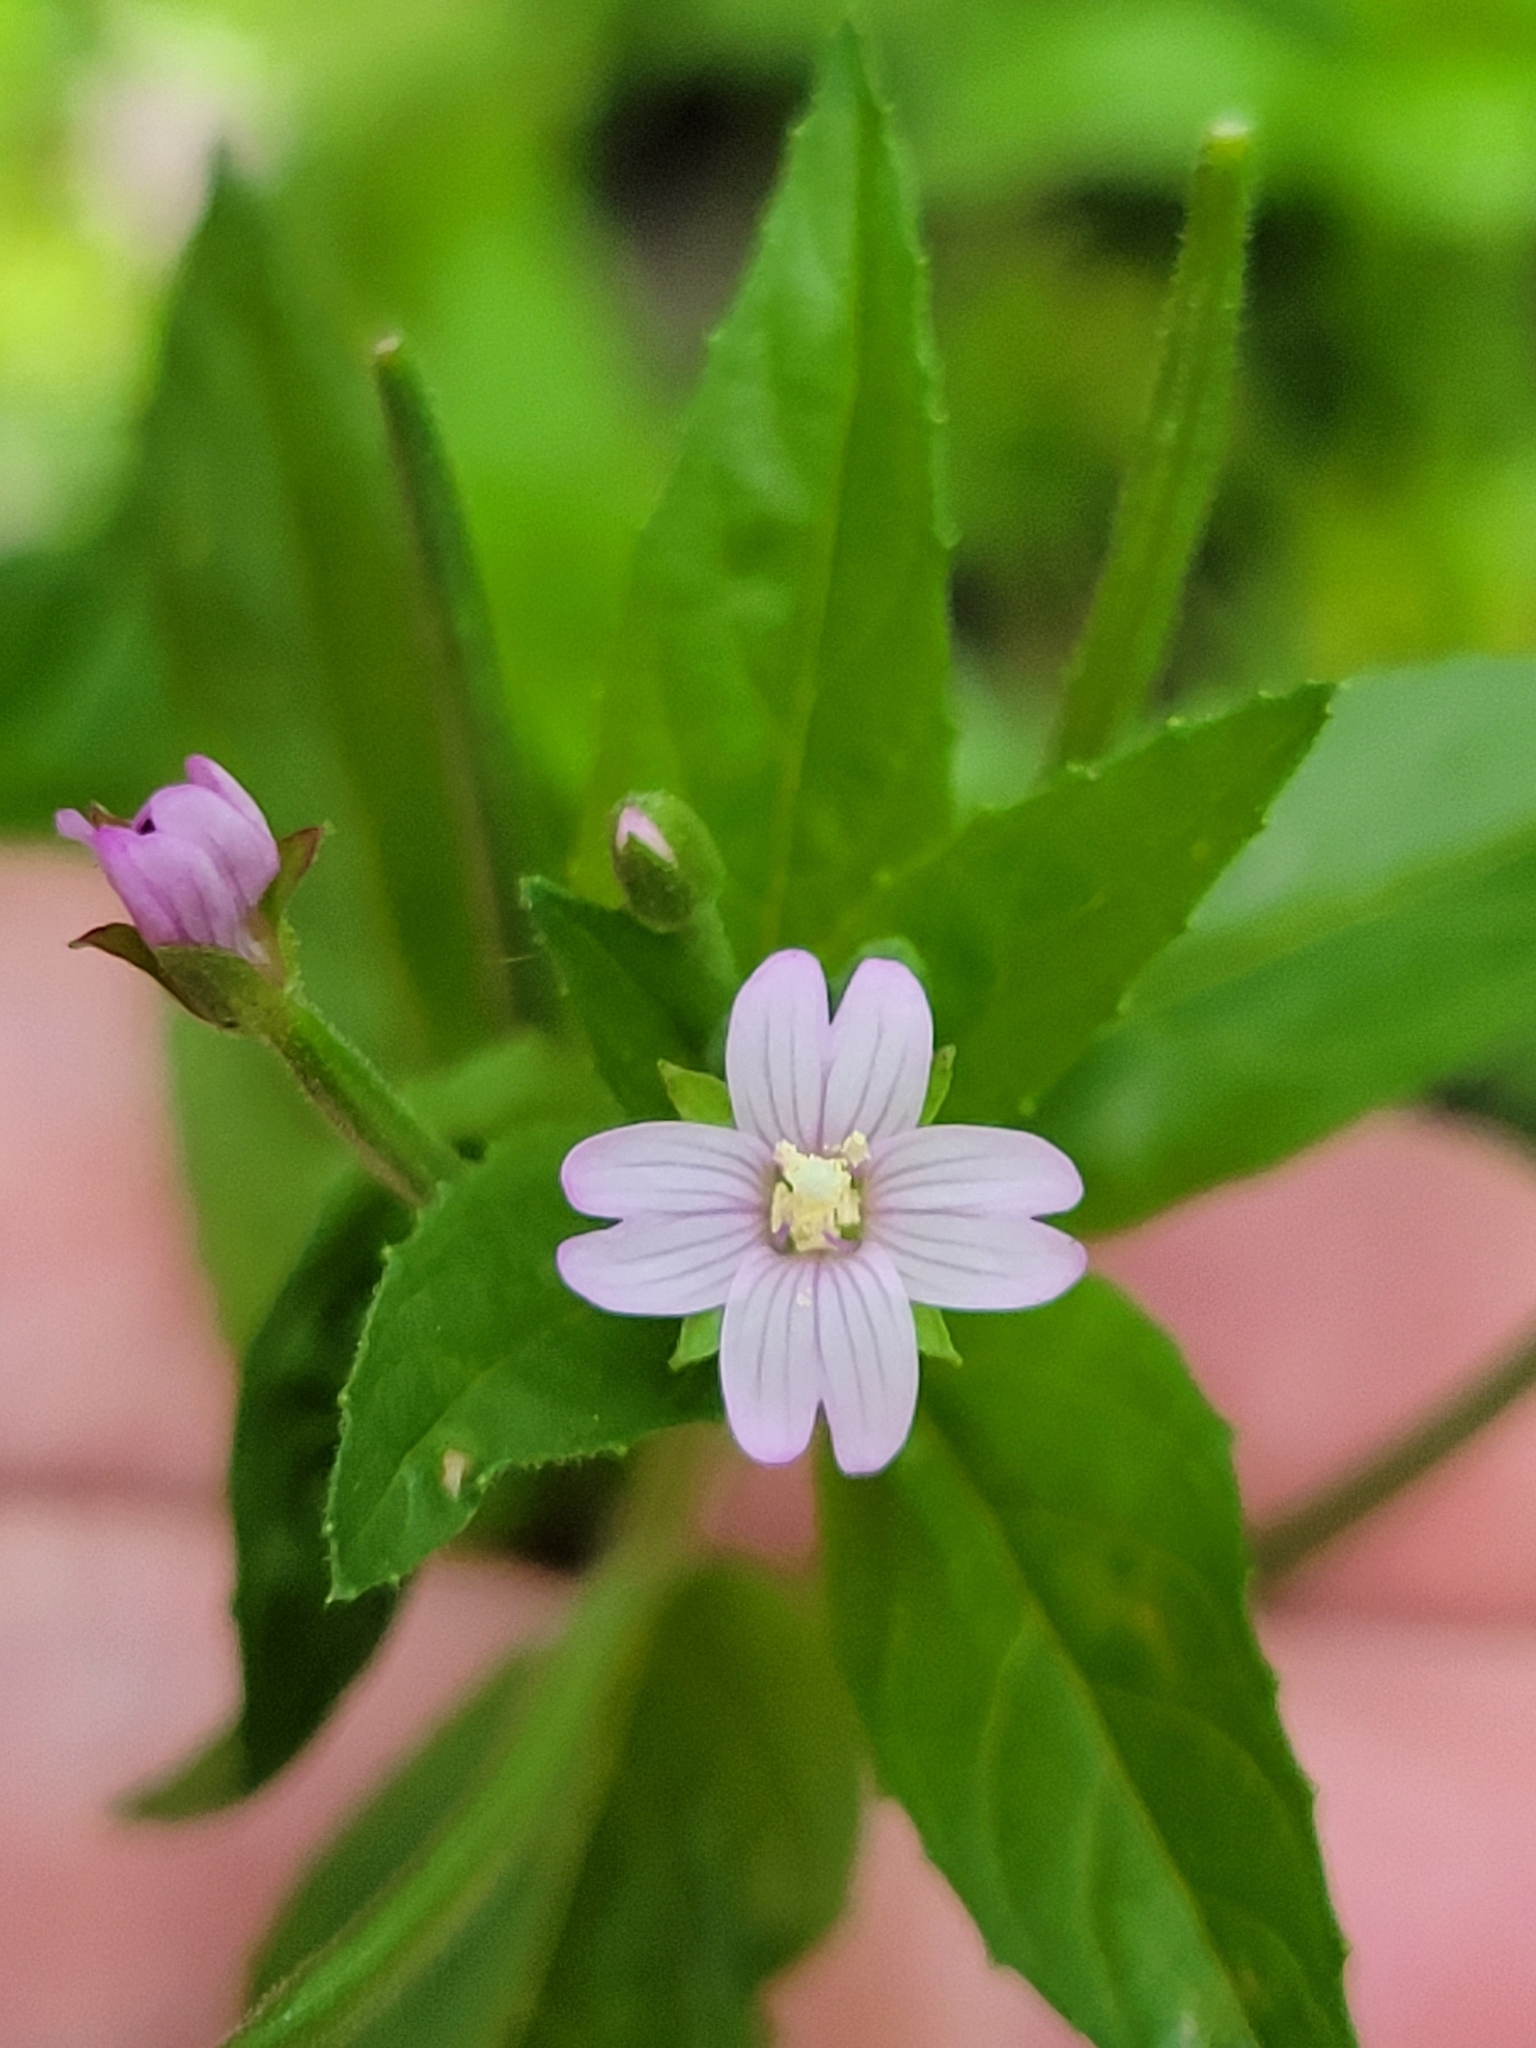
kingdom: Plantae
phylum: Tracheophyta
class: Magnoliopsida
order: Myrtales
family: Onagraceae
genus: Epilobium
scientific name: Epilobium ciliatum
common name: American willowherb
